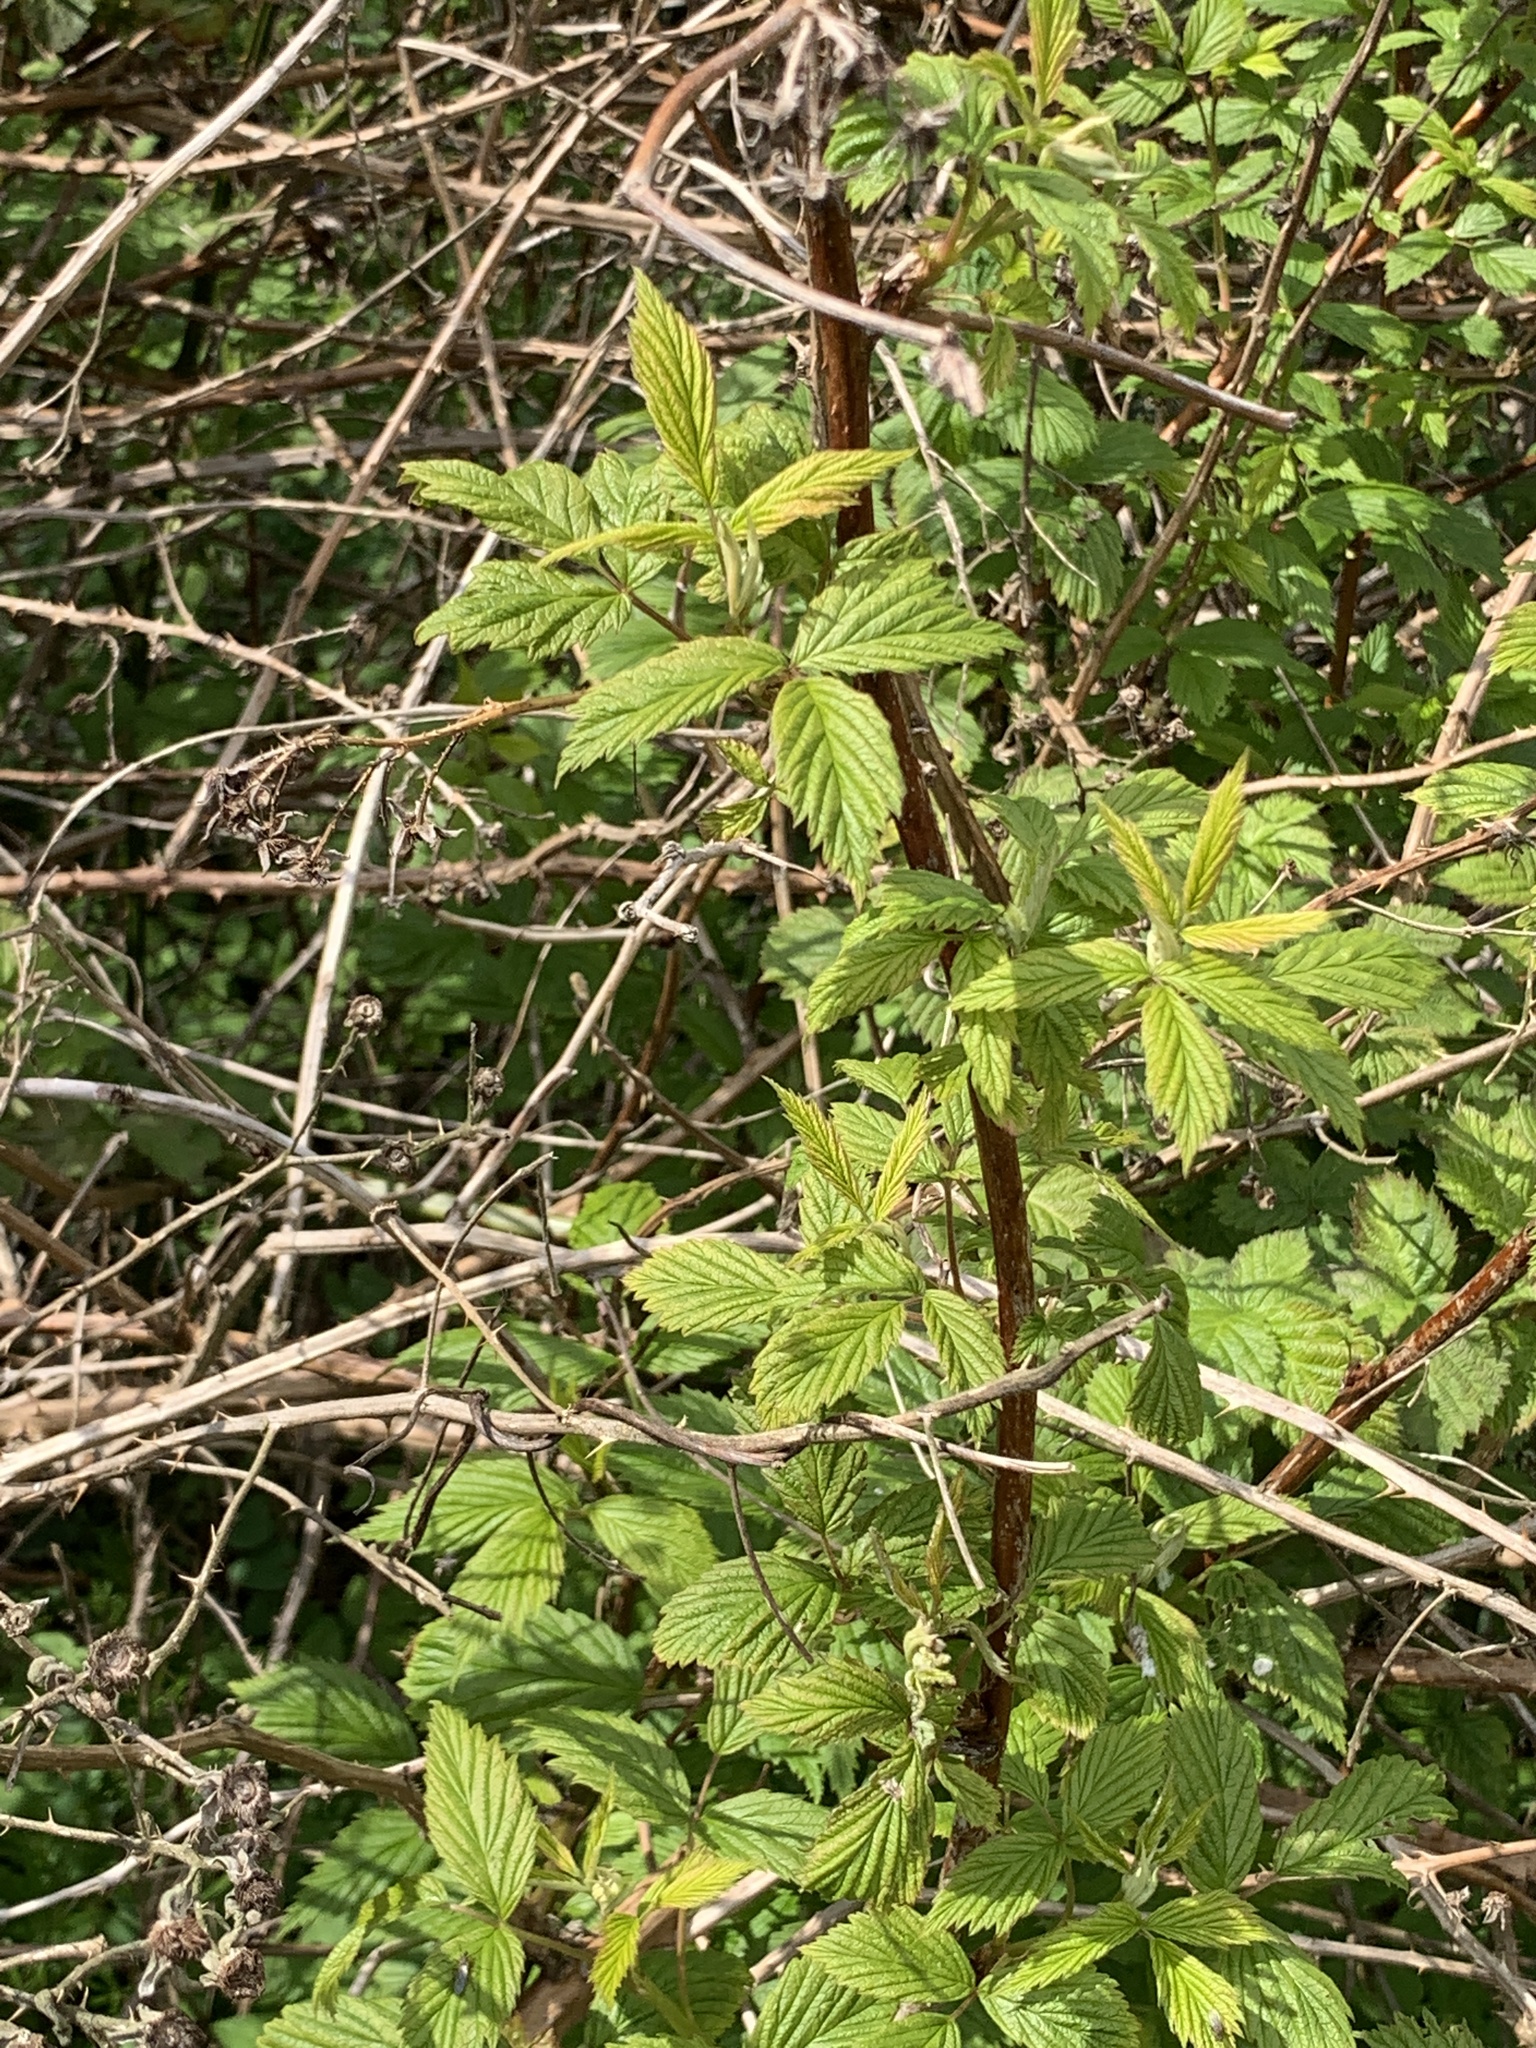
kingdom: Plantae
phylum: Tracheophyta
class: Magnoliopsida
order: Rosales
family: Rosaceae
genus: Rubus
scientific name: Rubus idaeus
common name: Raspberry
